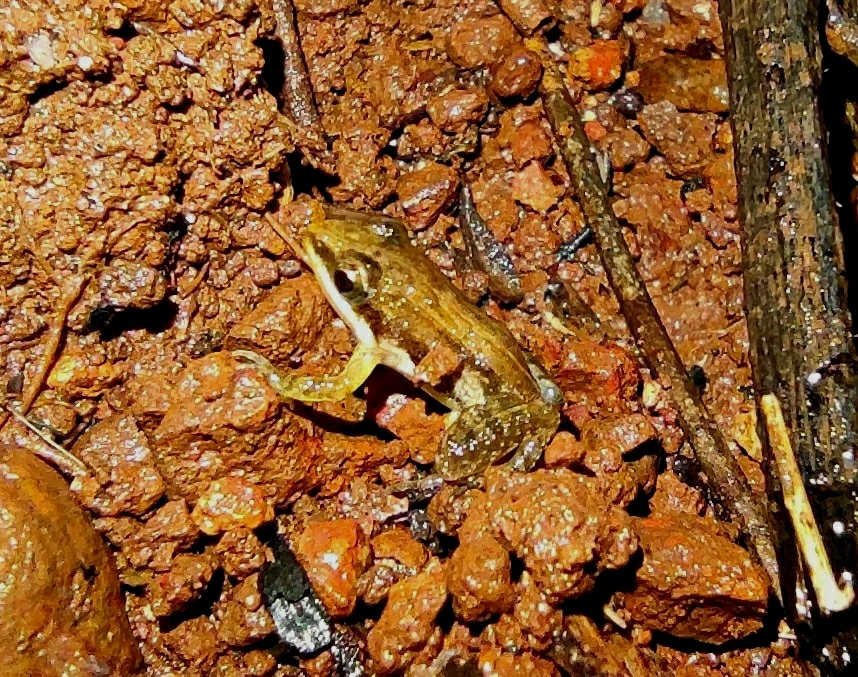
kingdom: Animalia
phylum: Chordata
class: Amphibia
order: Anura
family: Dicroglossidae
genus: Minervarya
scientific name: Minervarya sahyadris
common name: Minevarya frog
